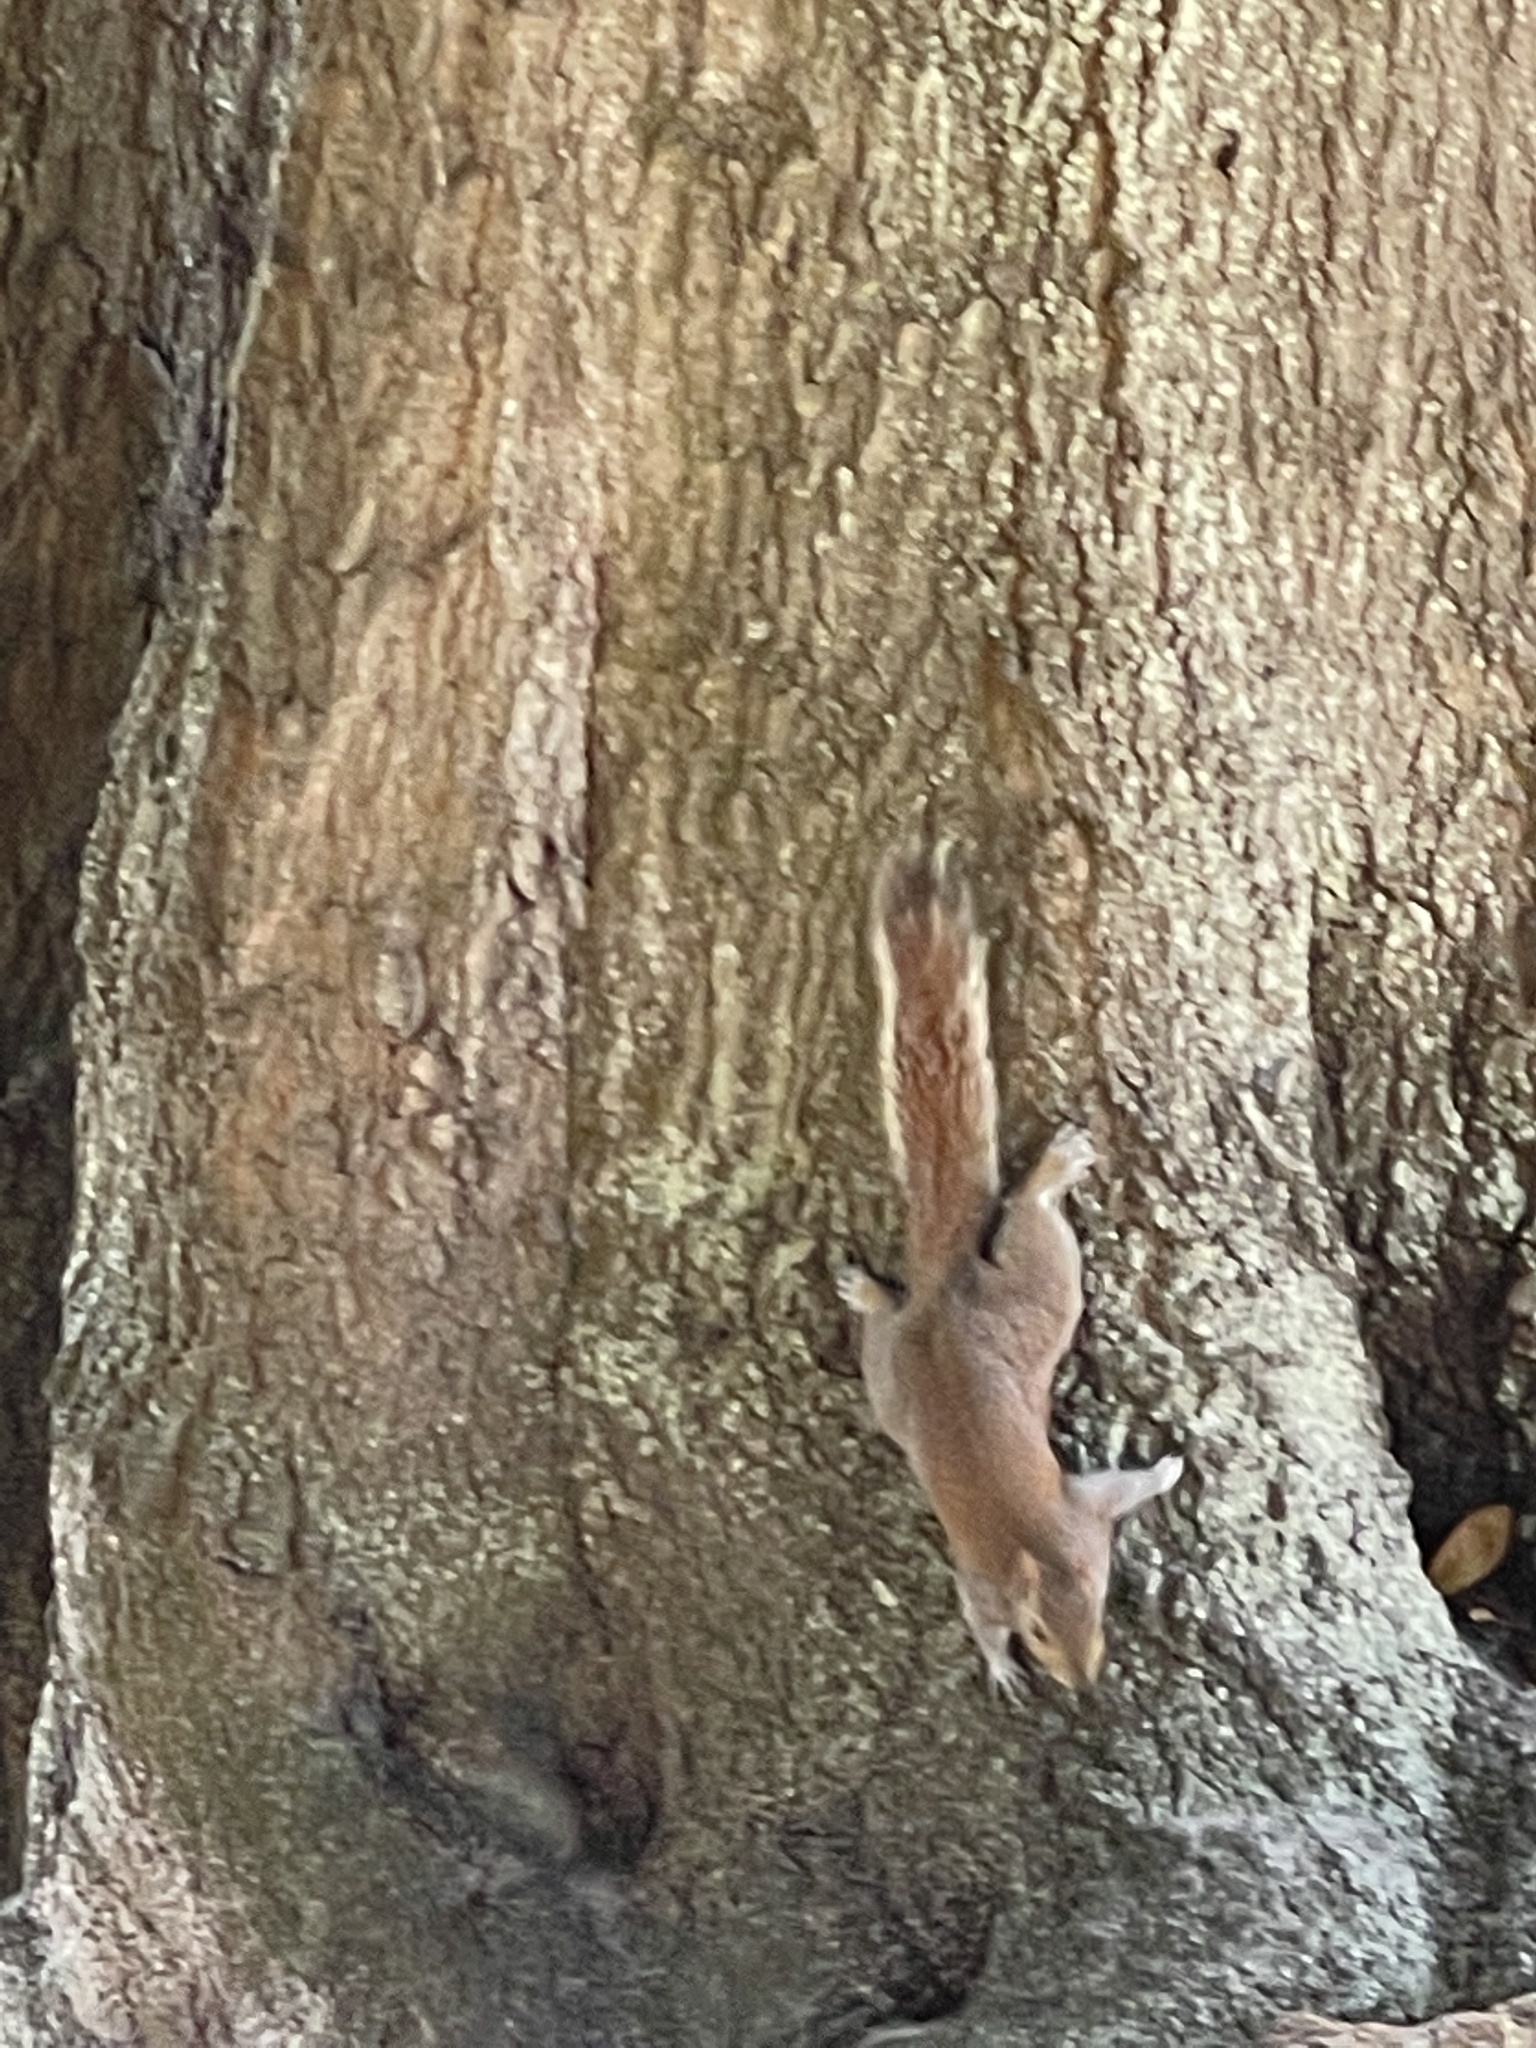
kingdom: Animalia
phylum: Chordata
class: Mammalia
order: Rodentia
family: Sciuridae
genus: Sciurus
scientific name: Sciurus carolinensis
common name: Eastern gray squirrel
